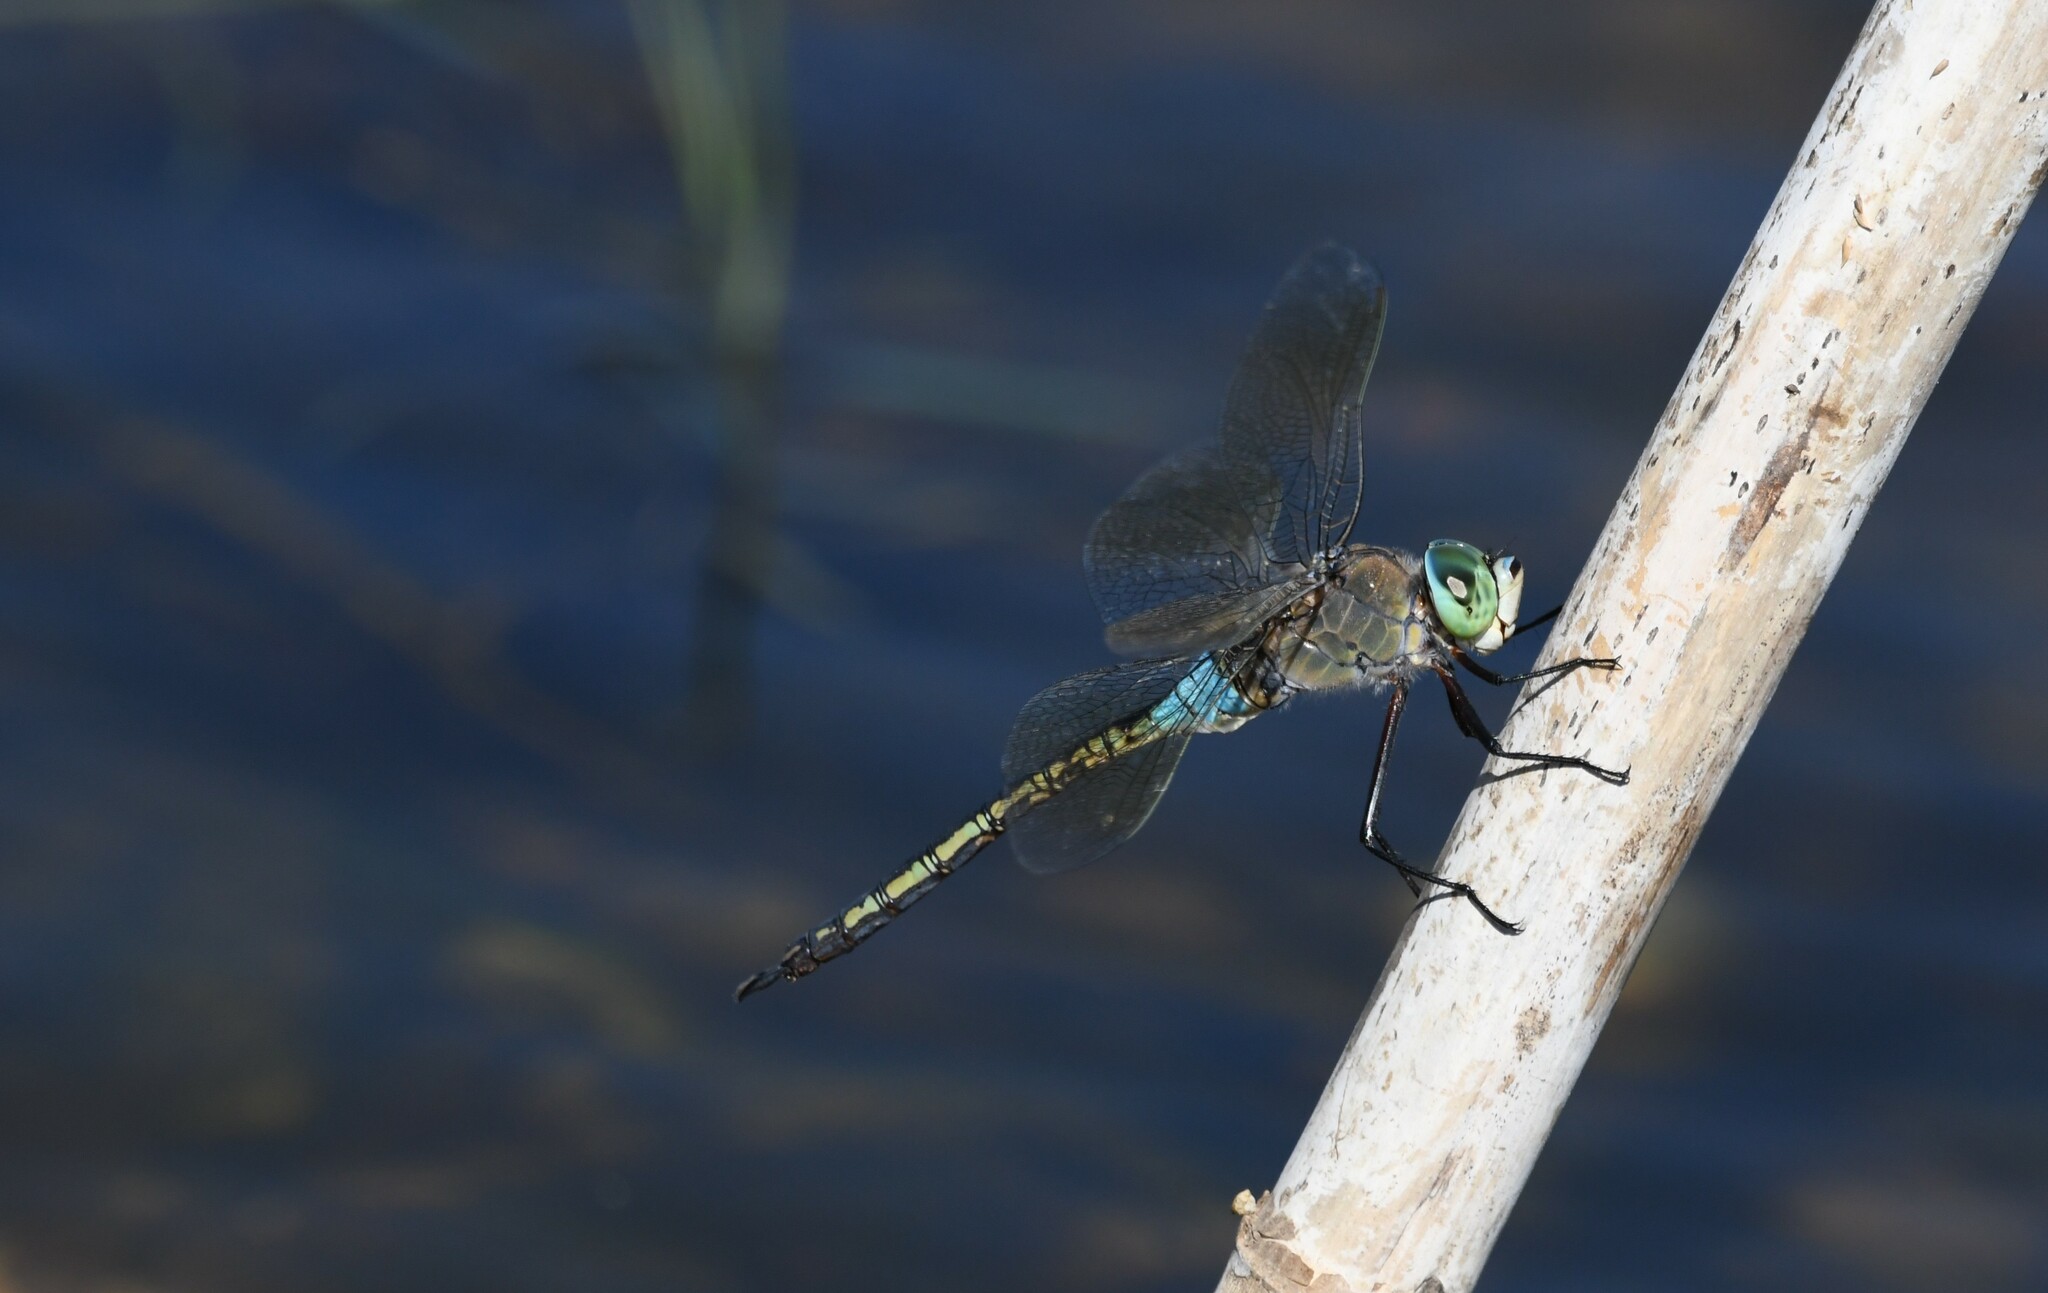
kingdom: Animalia
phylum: Arthropoda
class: Insecta
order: Odonata
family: Aeshnidae
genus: Anax
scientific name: Anax parthenope
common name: Lesser emperor
